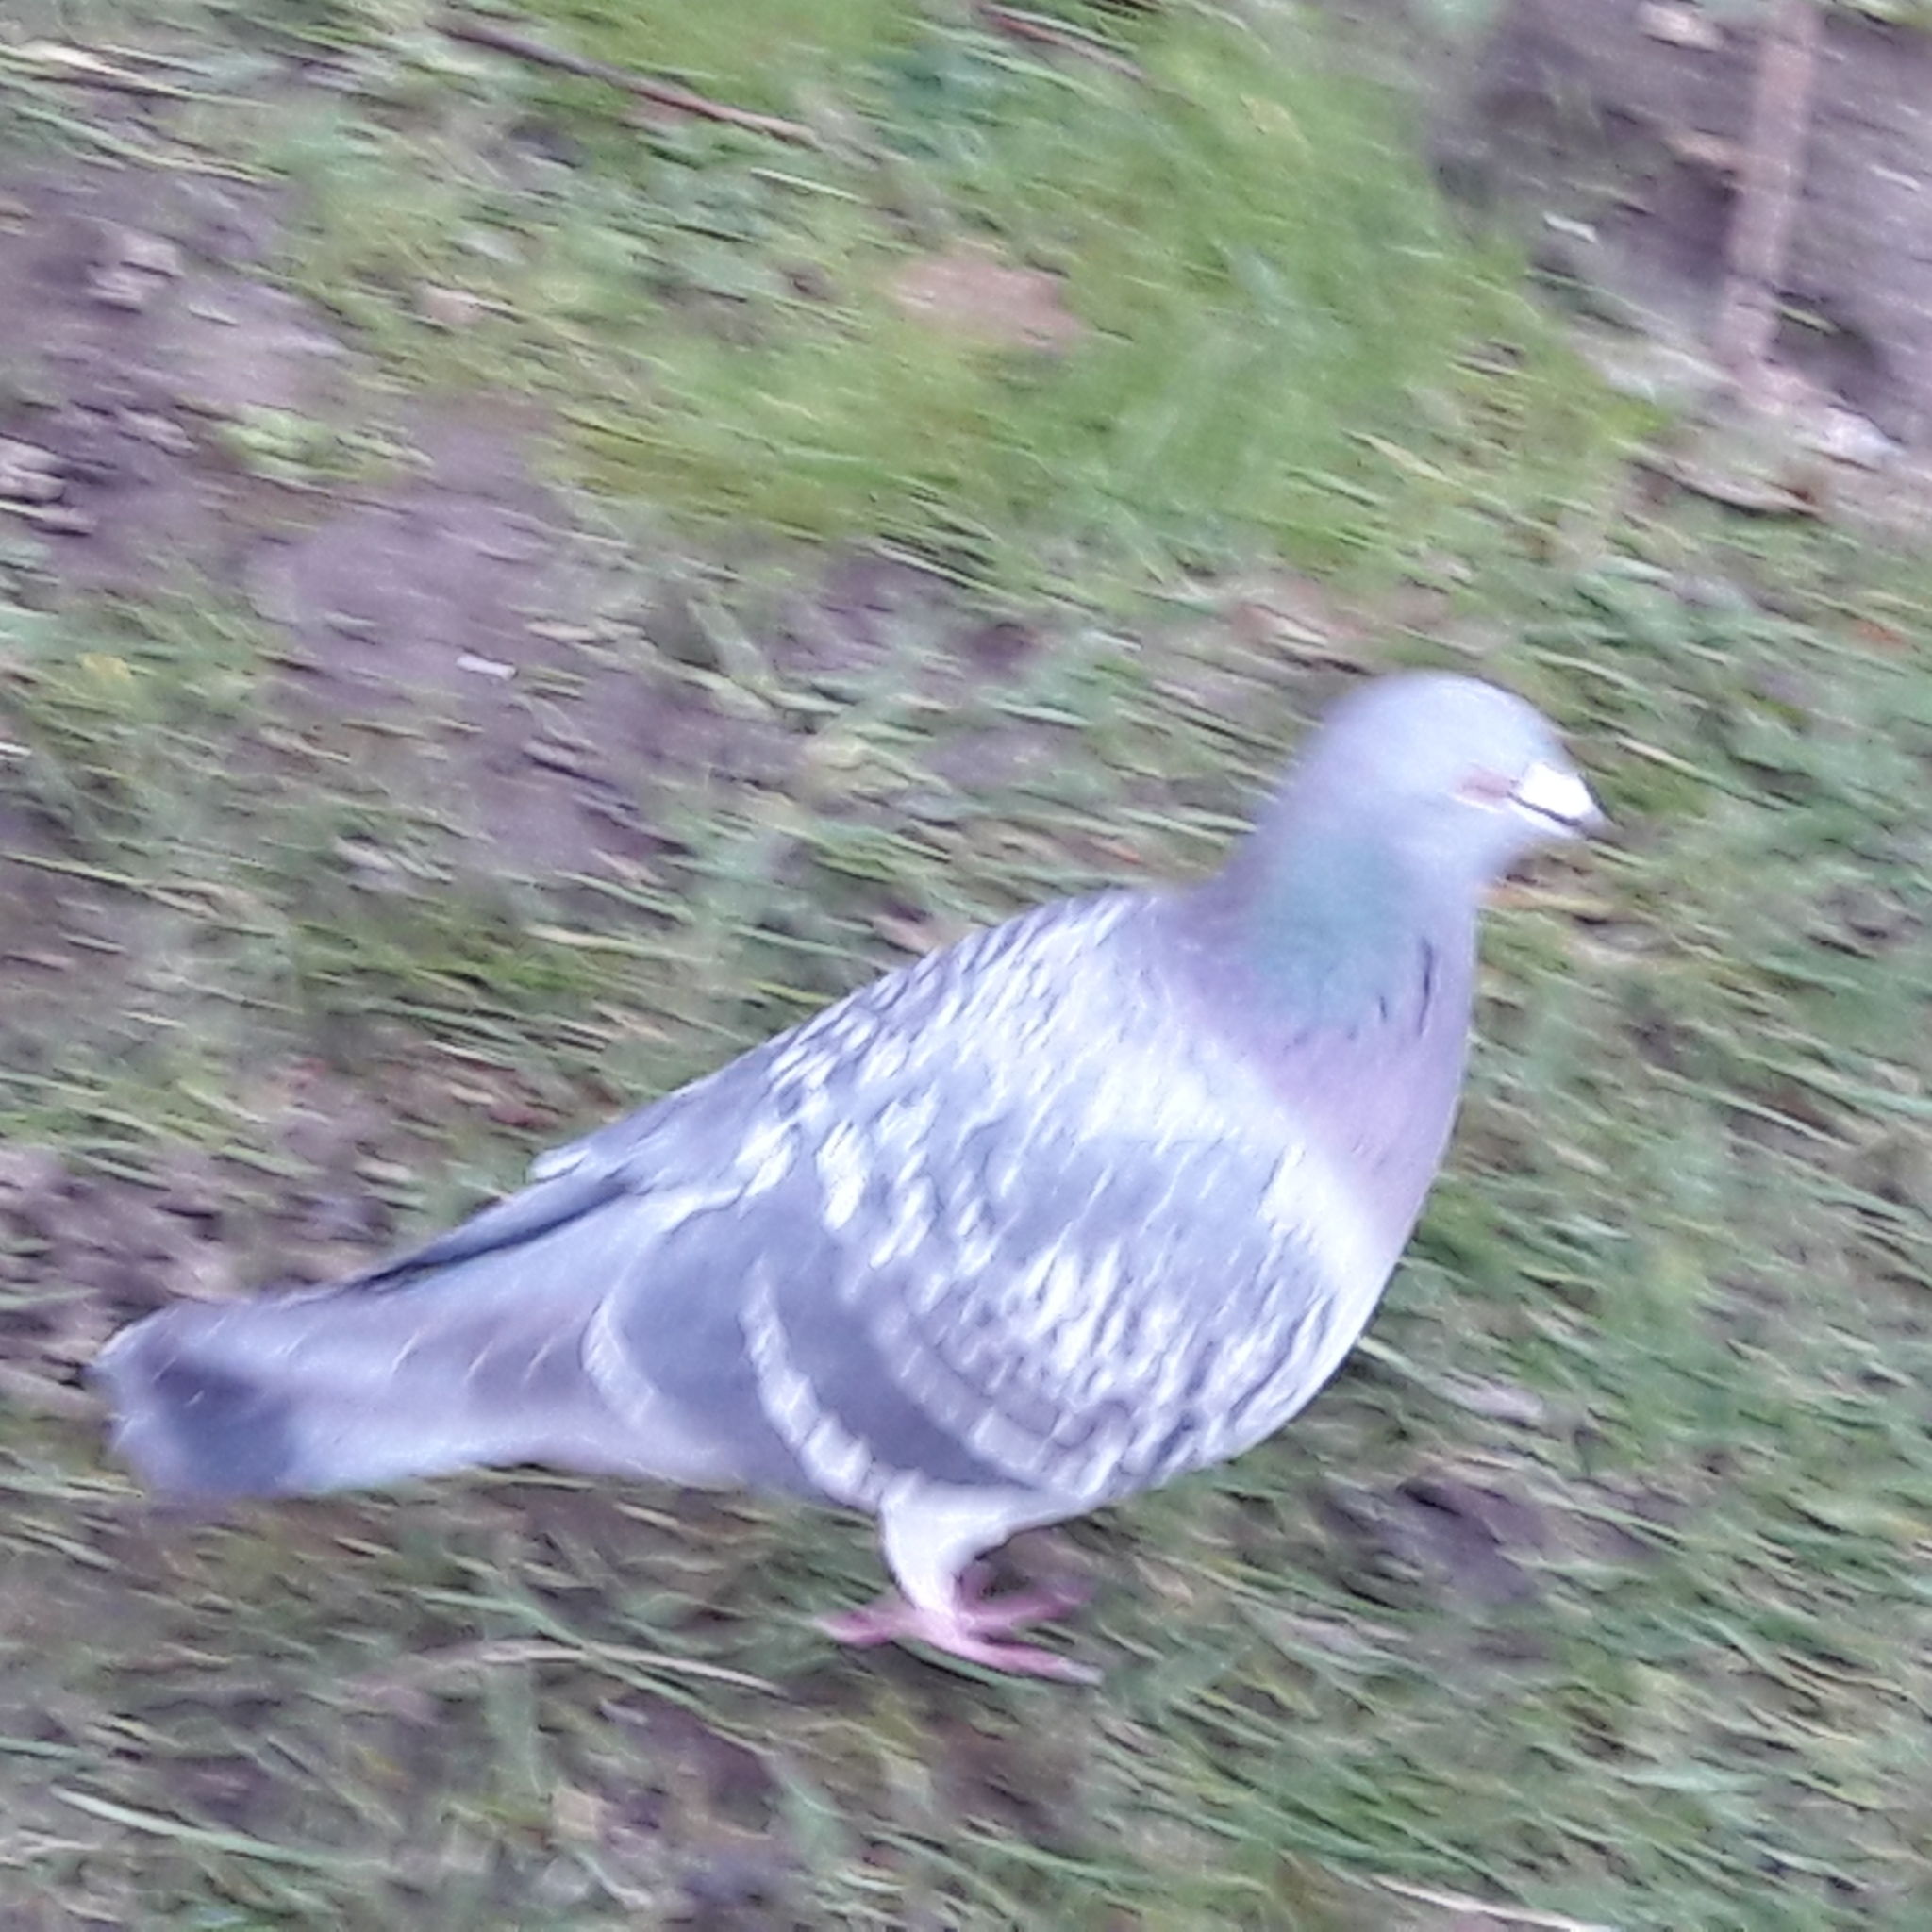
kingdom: Animalia
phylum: Chordata
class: Aves
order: Columbiformes
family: Columbidae
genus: Columba
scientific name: Columba livia
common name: Rock pigeon
